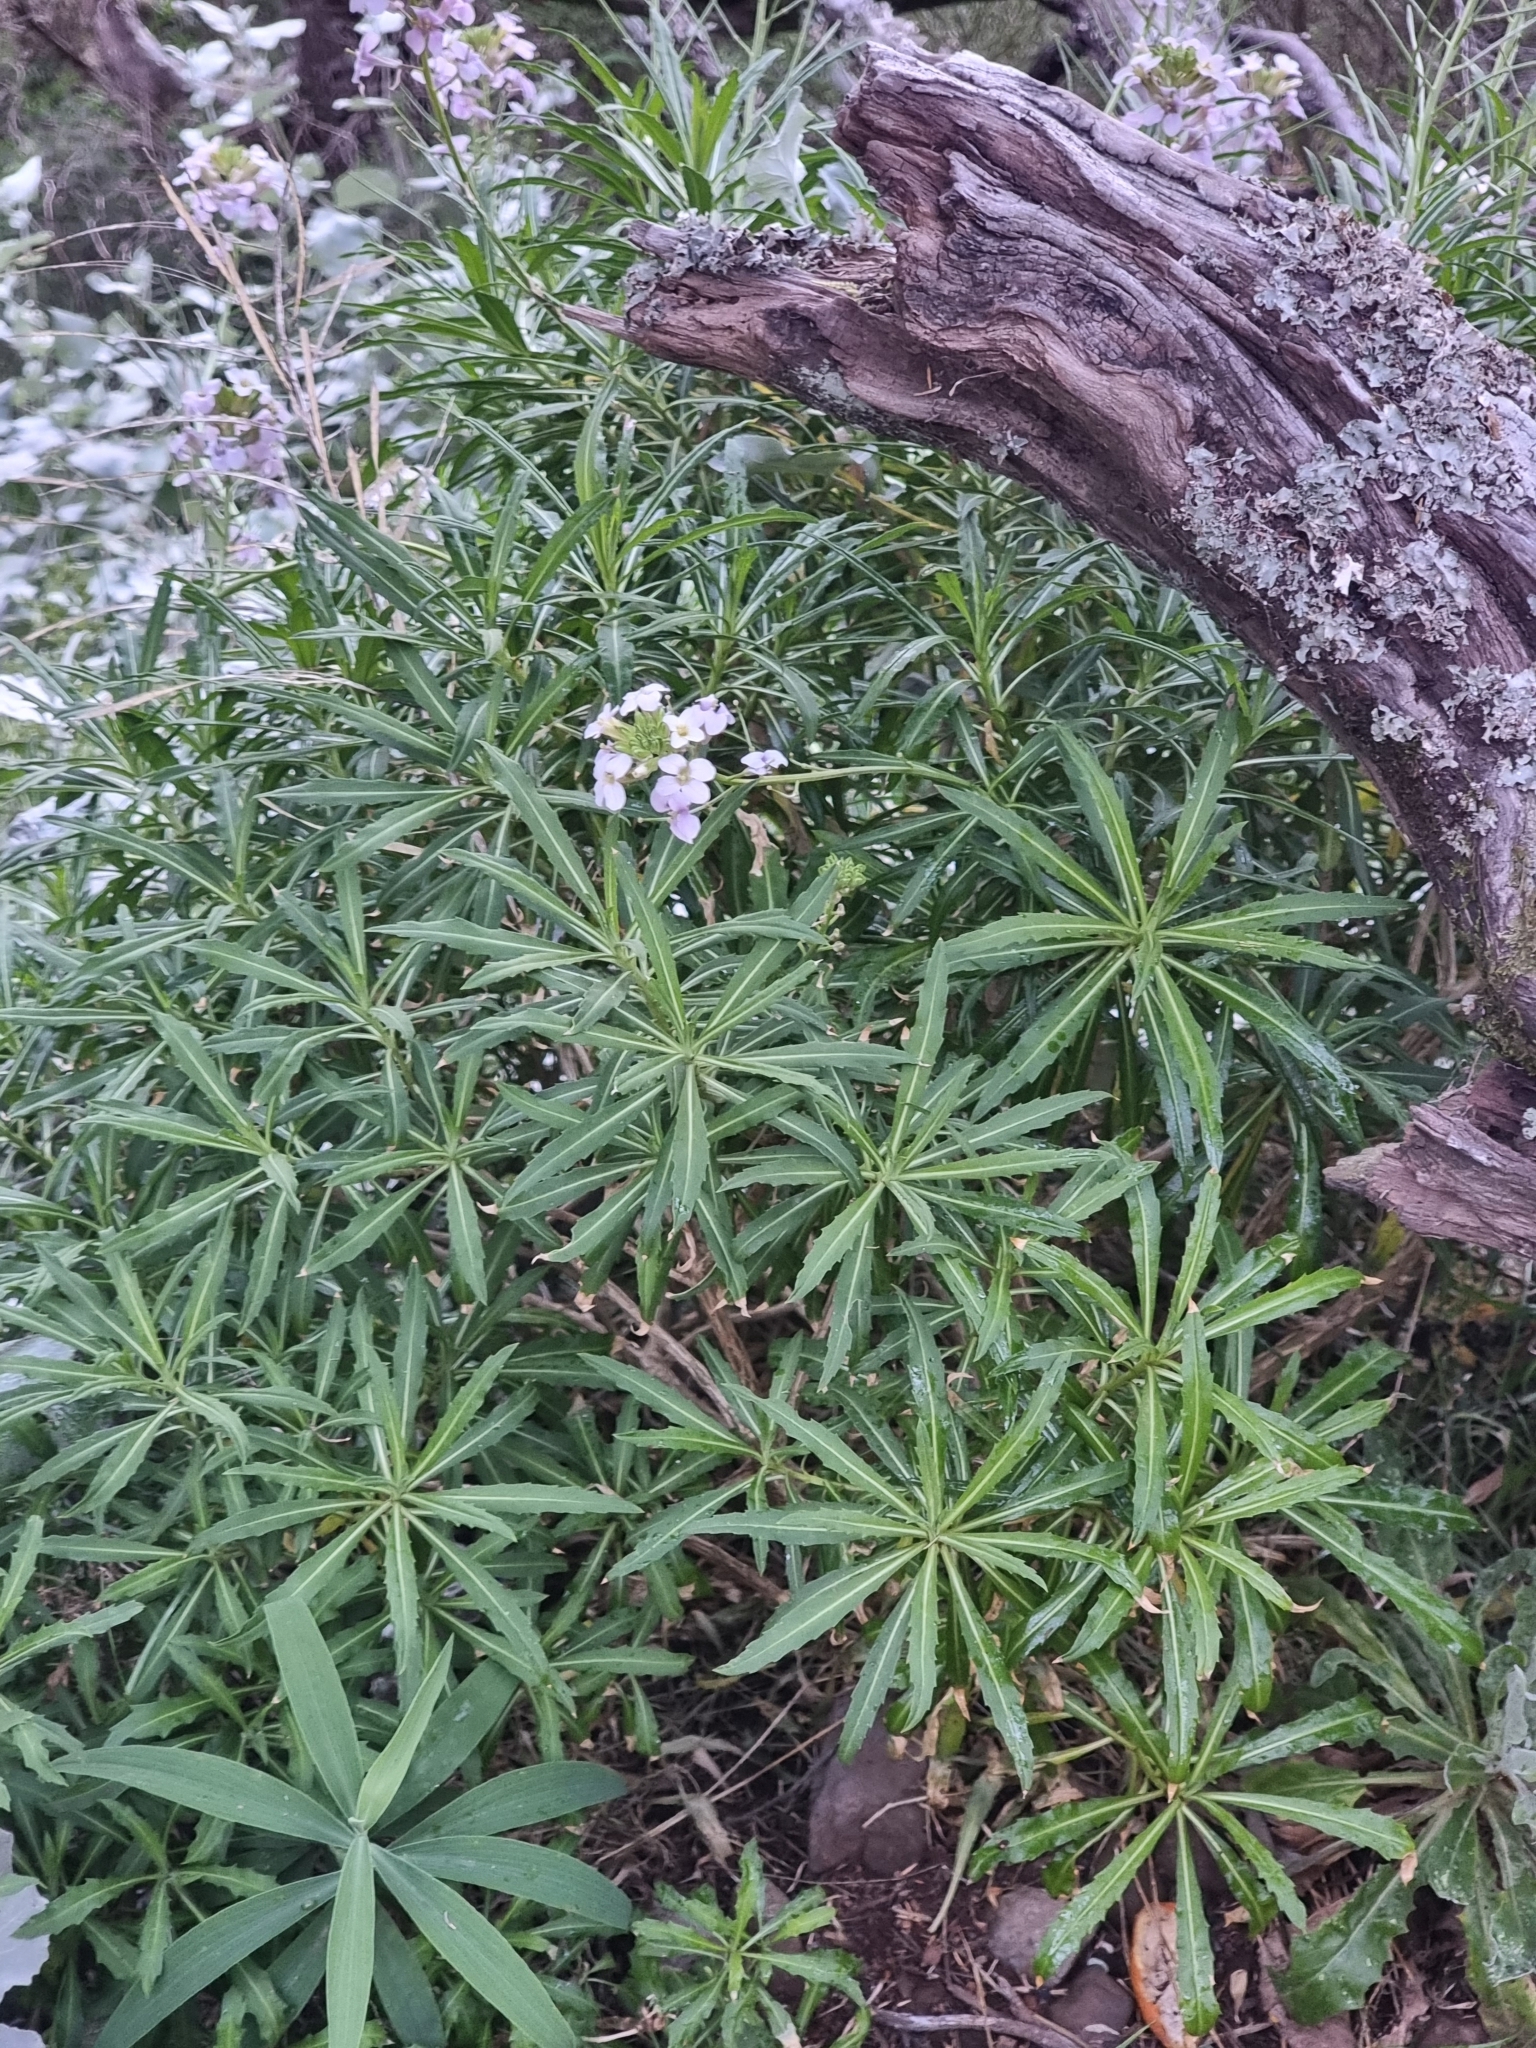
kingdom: Plantae
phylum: Tracheophyta
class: Magnoliopsida
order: Brassicales
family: Brassicaceae
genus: Erysimum
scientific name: Erysimum bicolor
